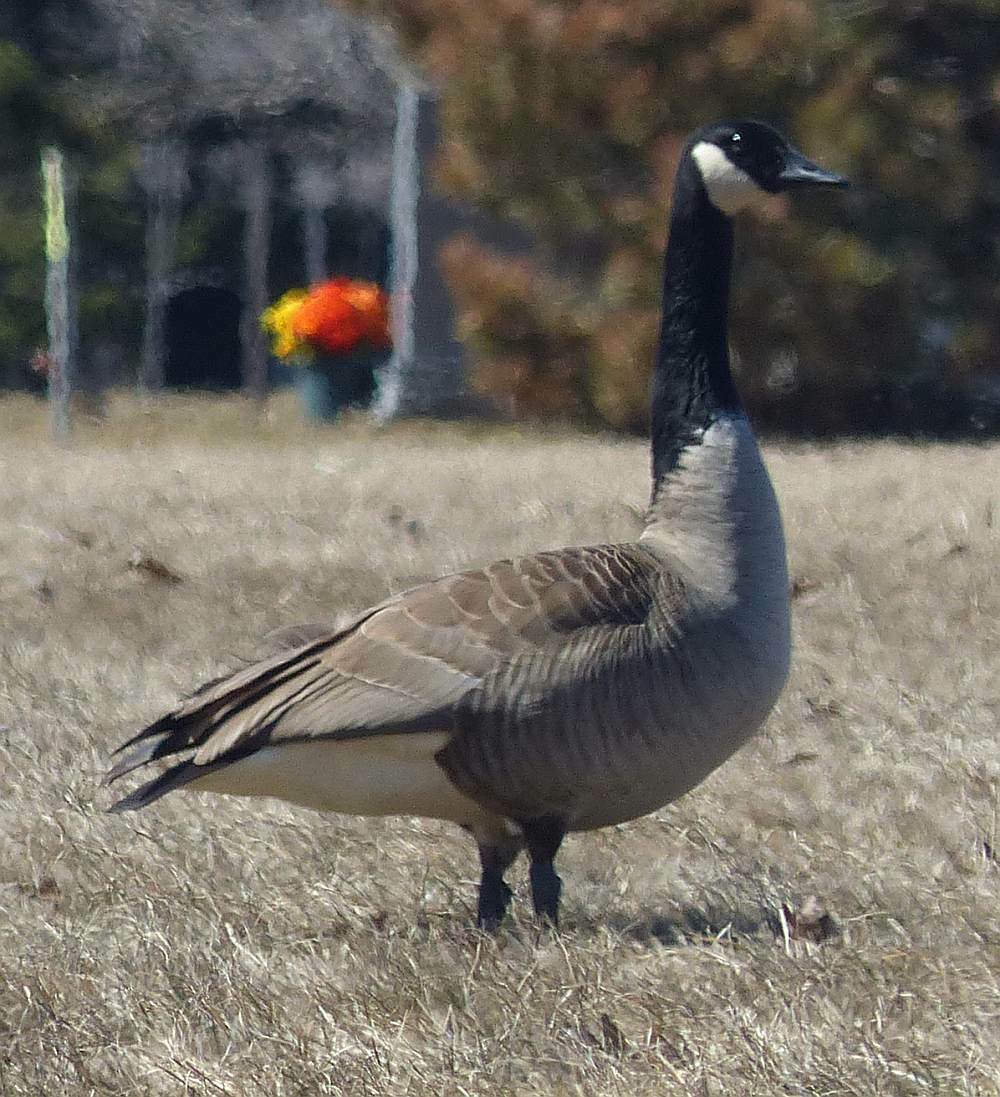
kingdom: Animalia
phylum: Chordata
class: Aves
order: Anseriformes
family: Anatidae
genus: Branta
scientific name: Branta canadensis
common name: Canada goose
